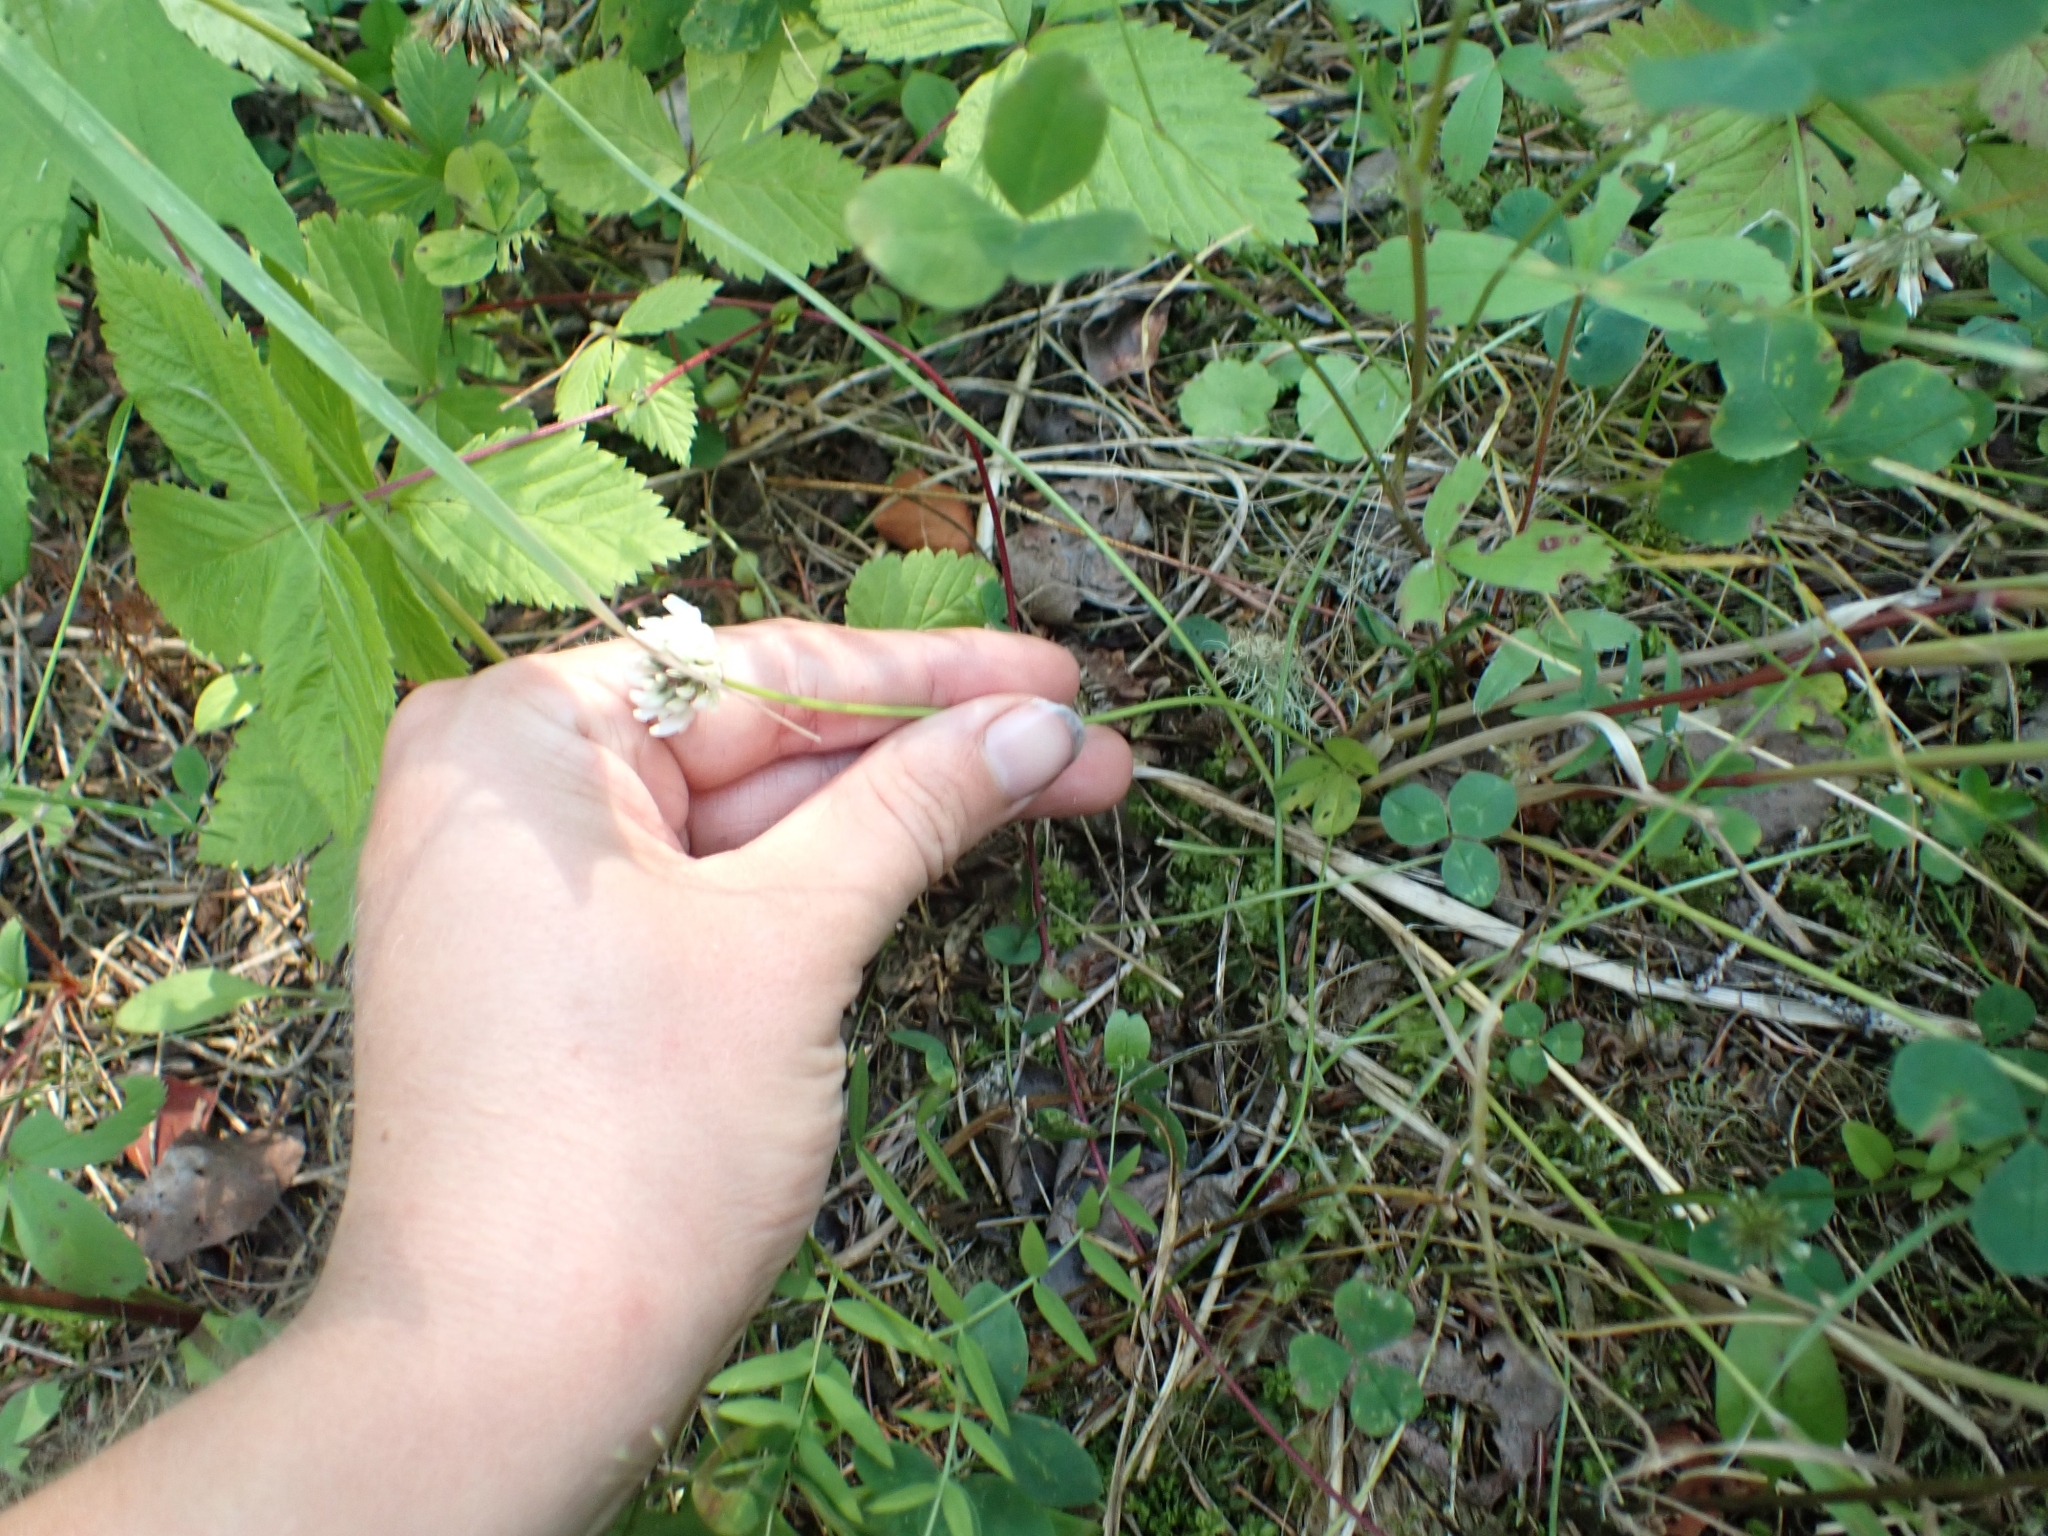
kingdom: Plantae
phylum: Tracheophyta
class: Magnoliopsida
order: Fabales
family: Fabaceae
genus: Trifolium
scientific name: Trifolium repens
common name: White clover
